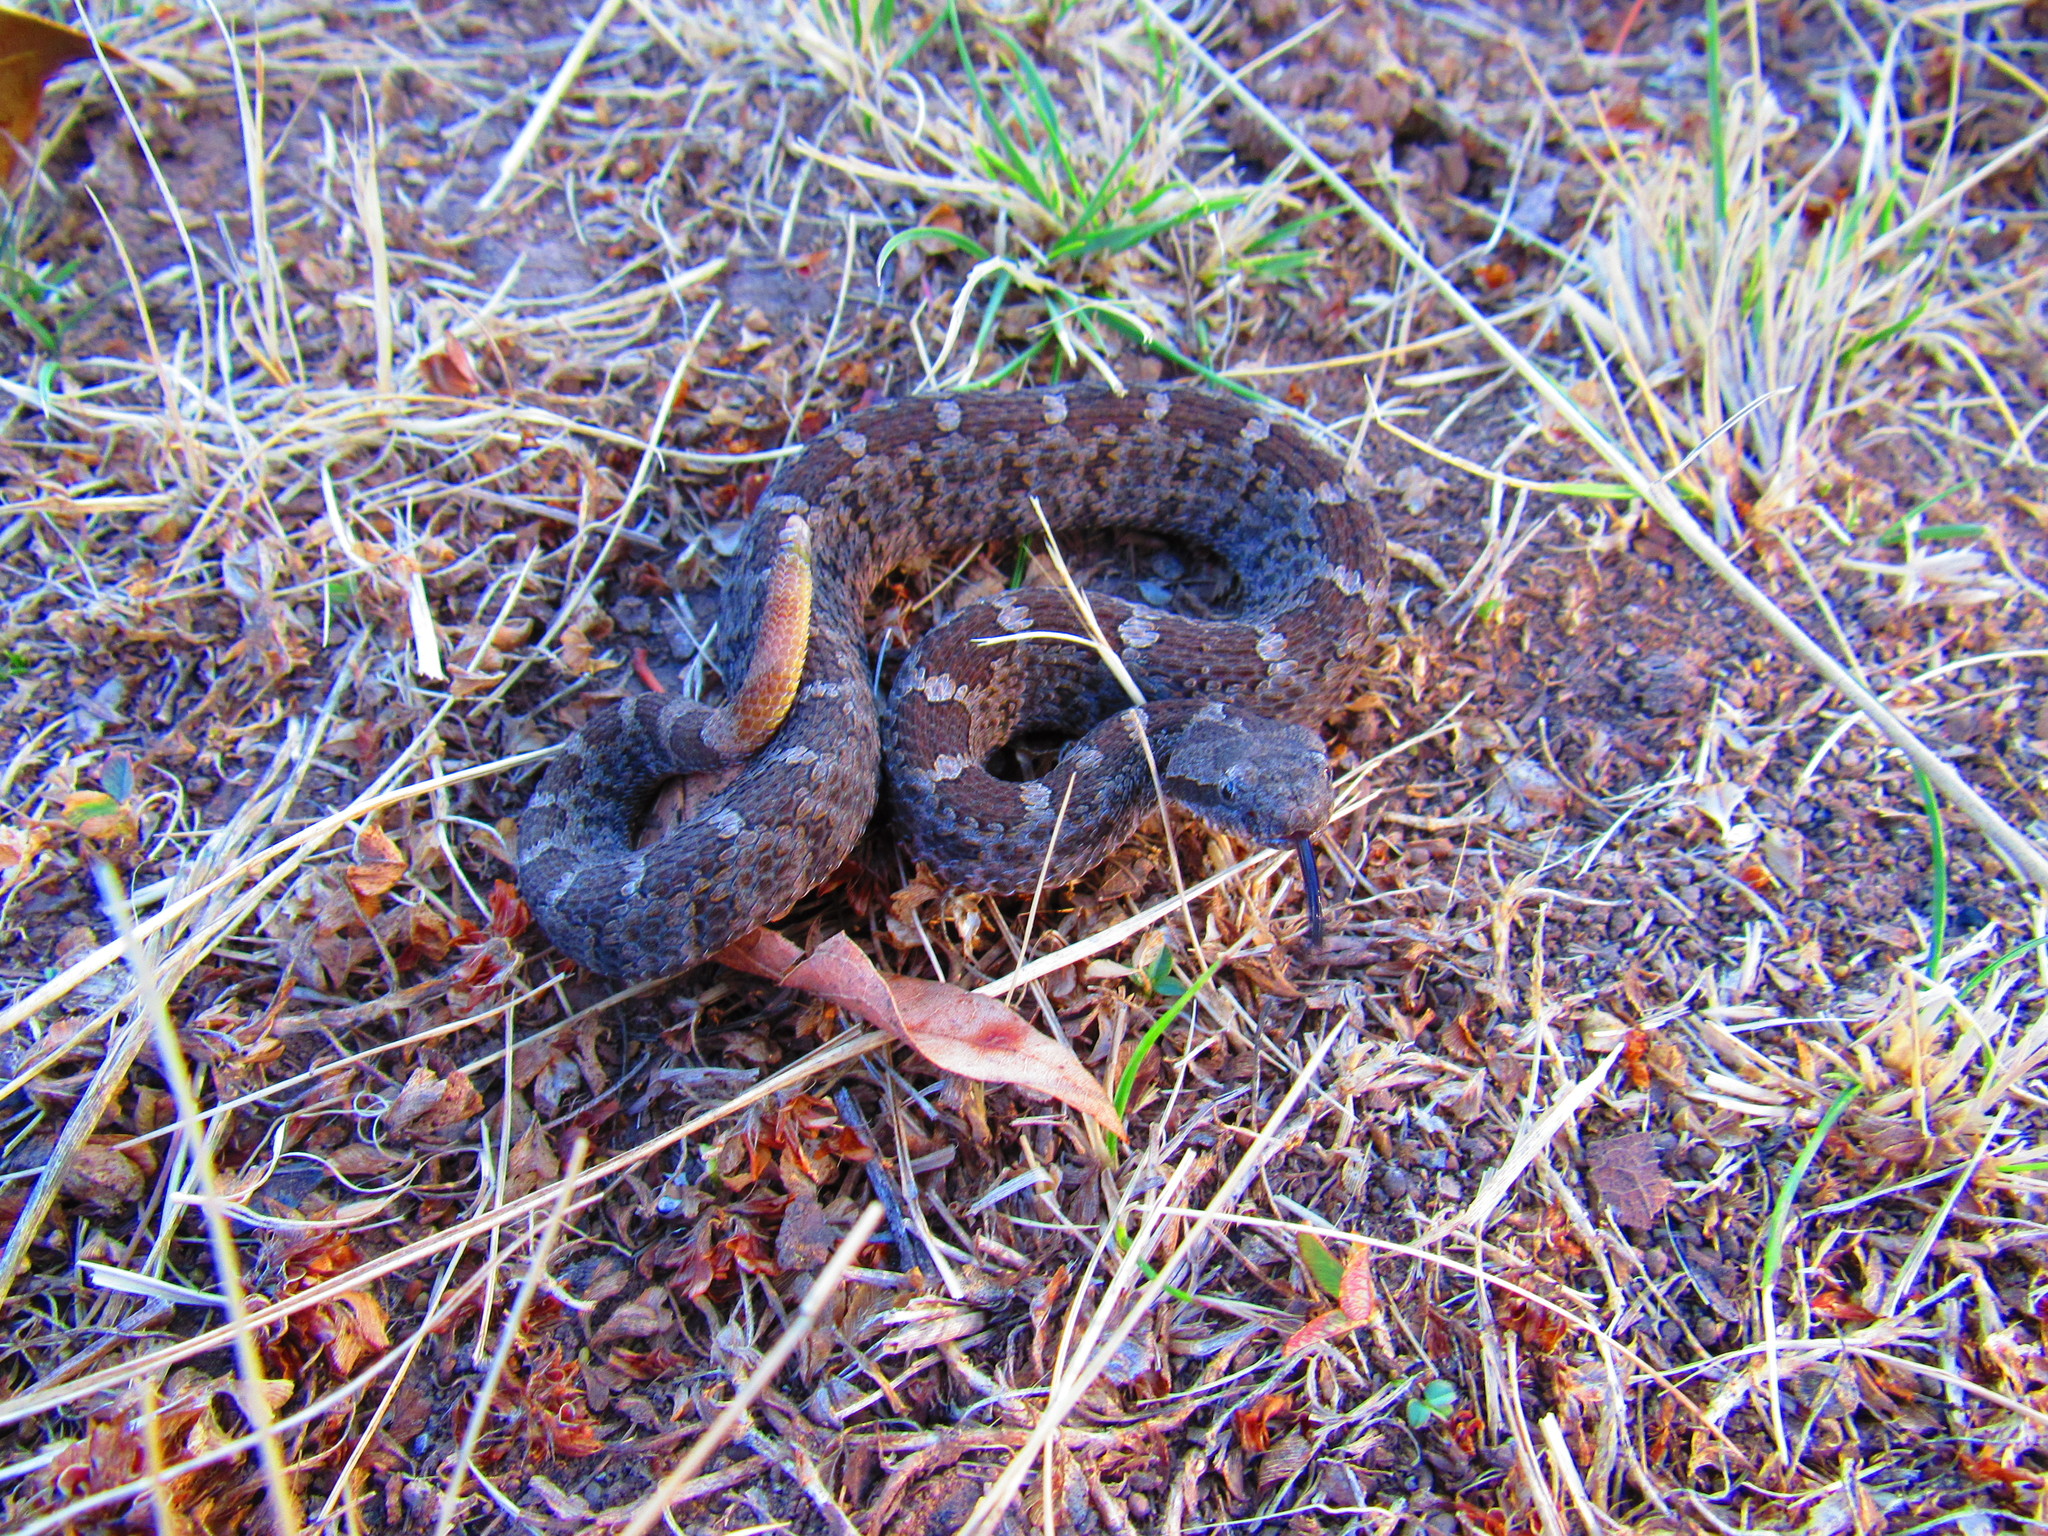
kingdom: Animalia
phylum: Chordata
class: Squamata
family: Viperidae
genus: Crotalus
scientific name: Crotalus aquilus
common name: Queretaran dusky rattlesnake
